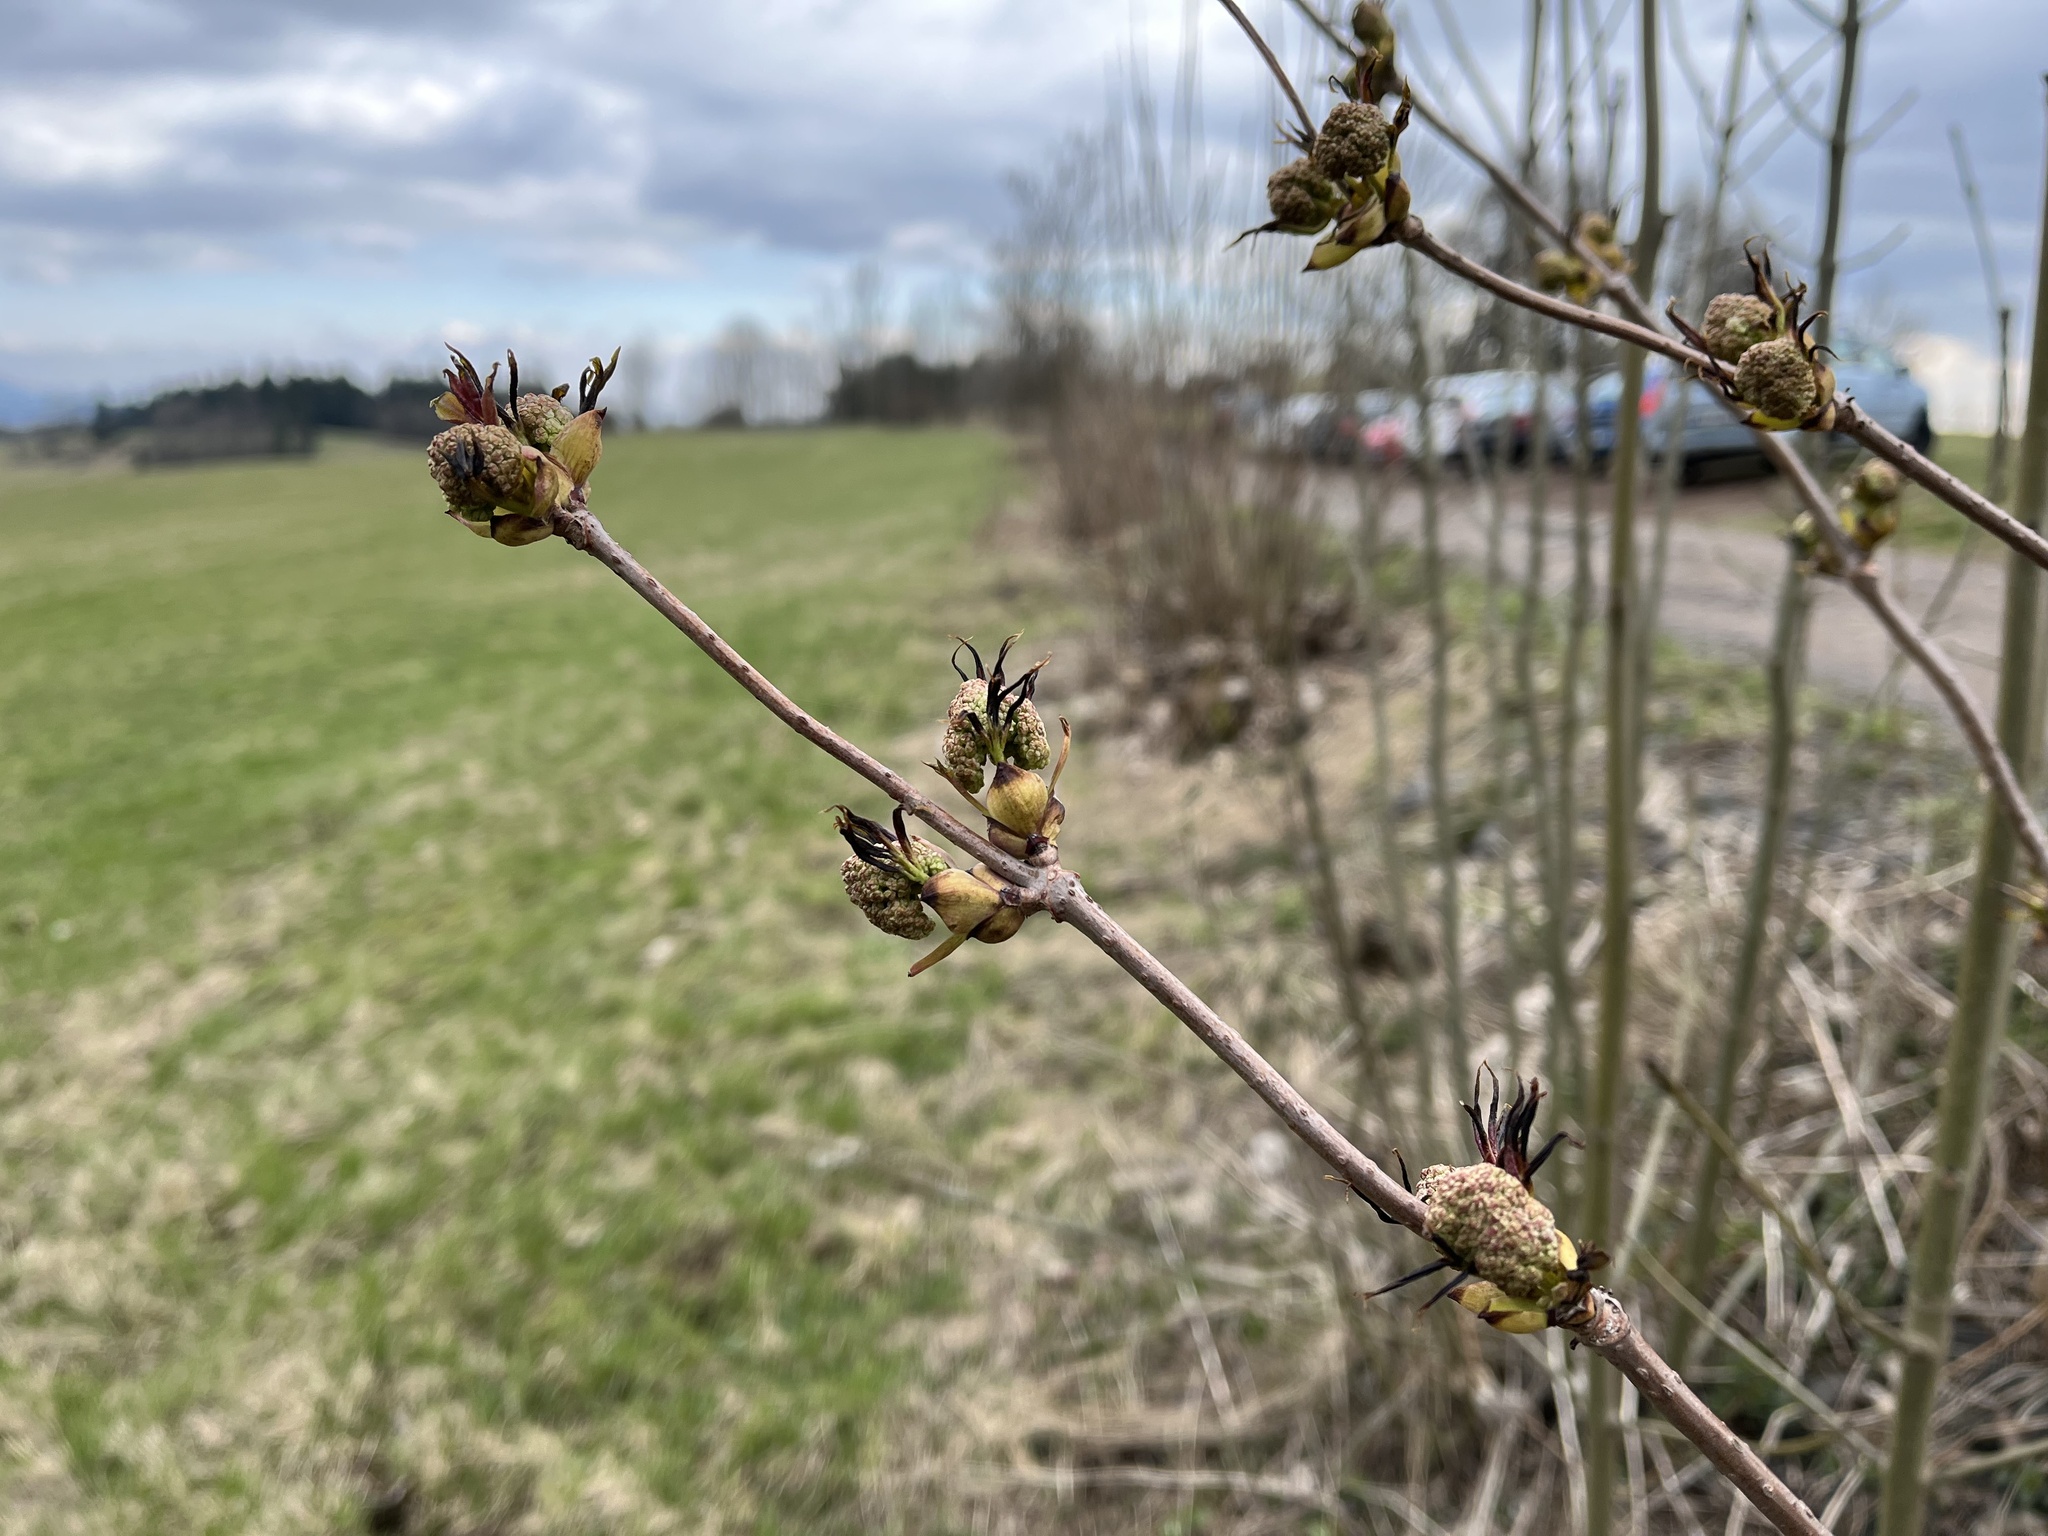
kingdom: Plantae
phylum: Tracheophyta
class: Magnoliopsida
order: Dipsacales
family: Viburnaceae
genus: Sambucus
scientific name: Sambucus racemosa
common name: Red-berried elder
